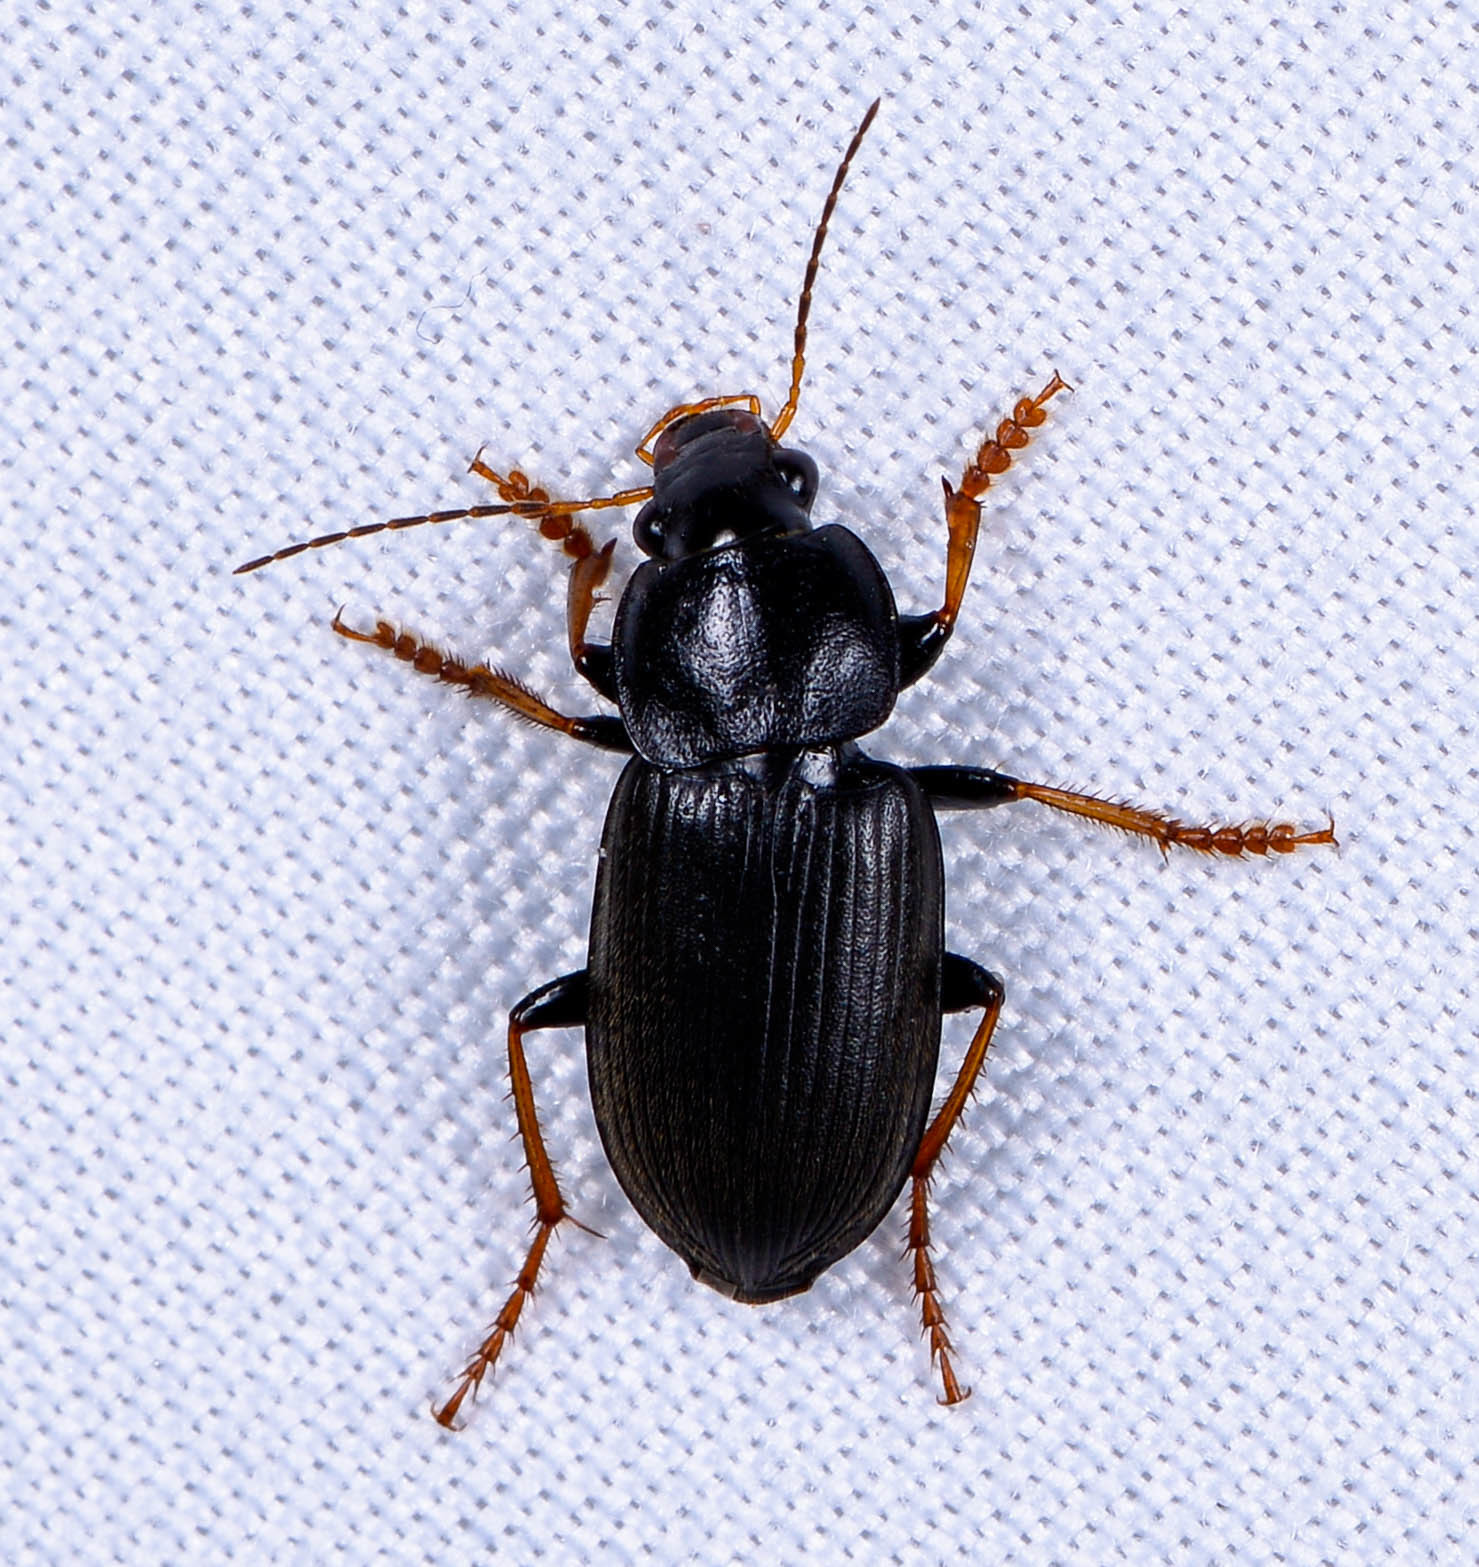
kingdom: Animalia
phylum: Arthropoda
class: Insecta
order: Coleoptera
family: Carabidae
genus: Amphasia
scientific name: Amphasia sericea
